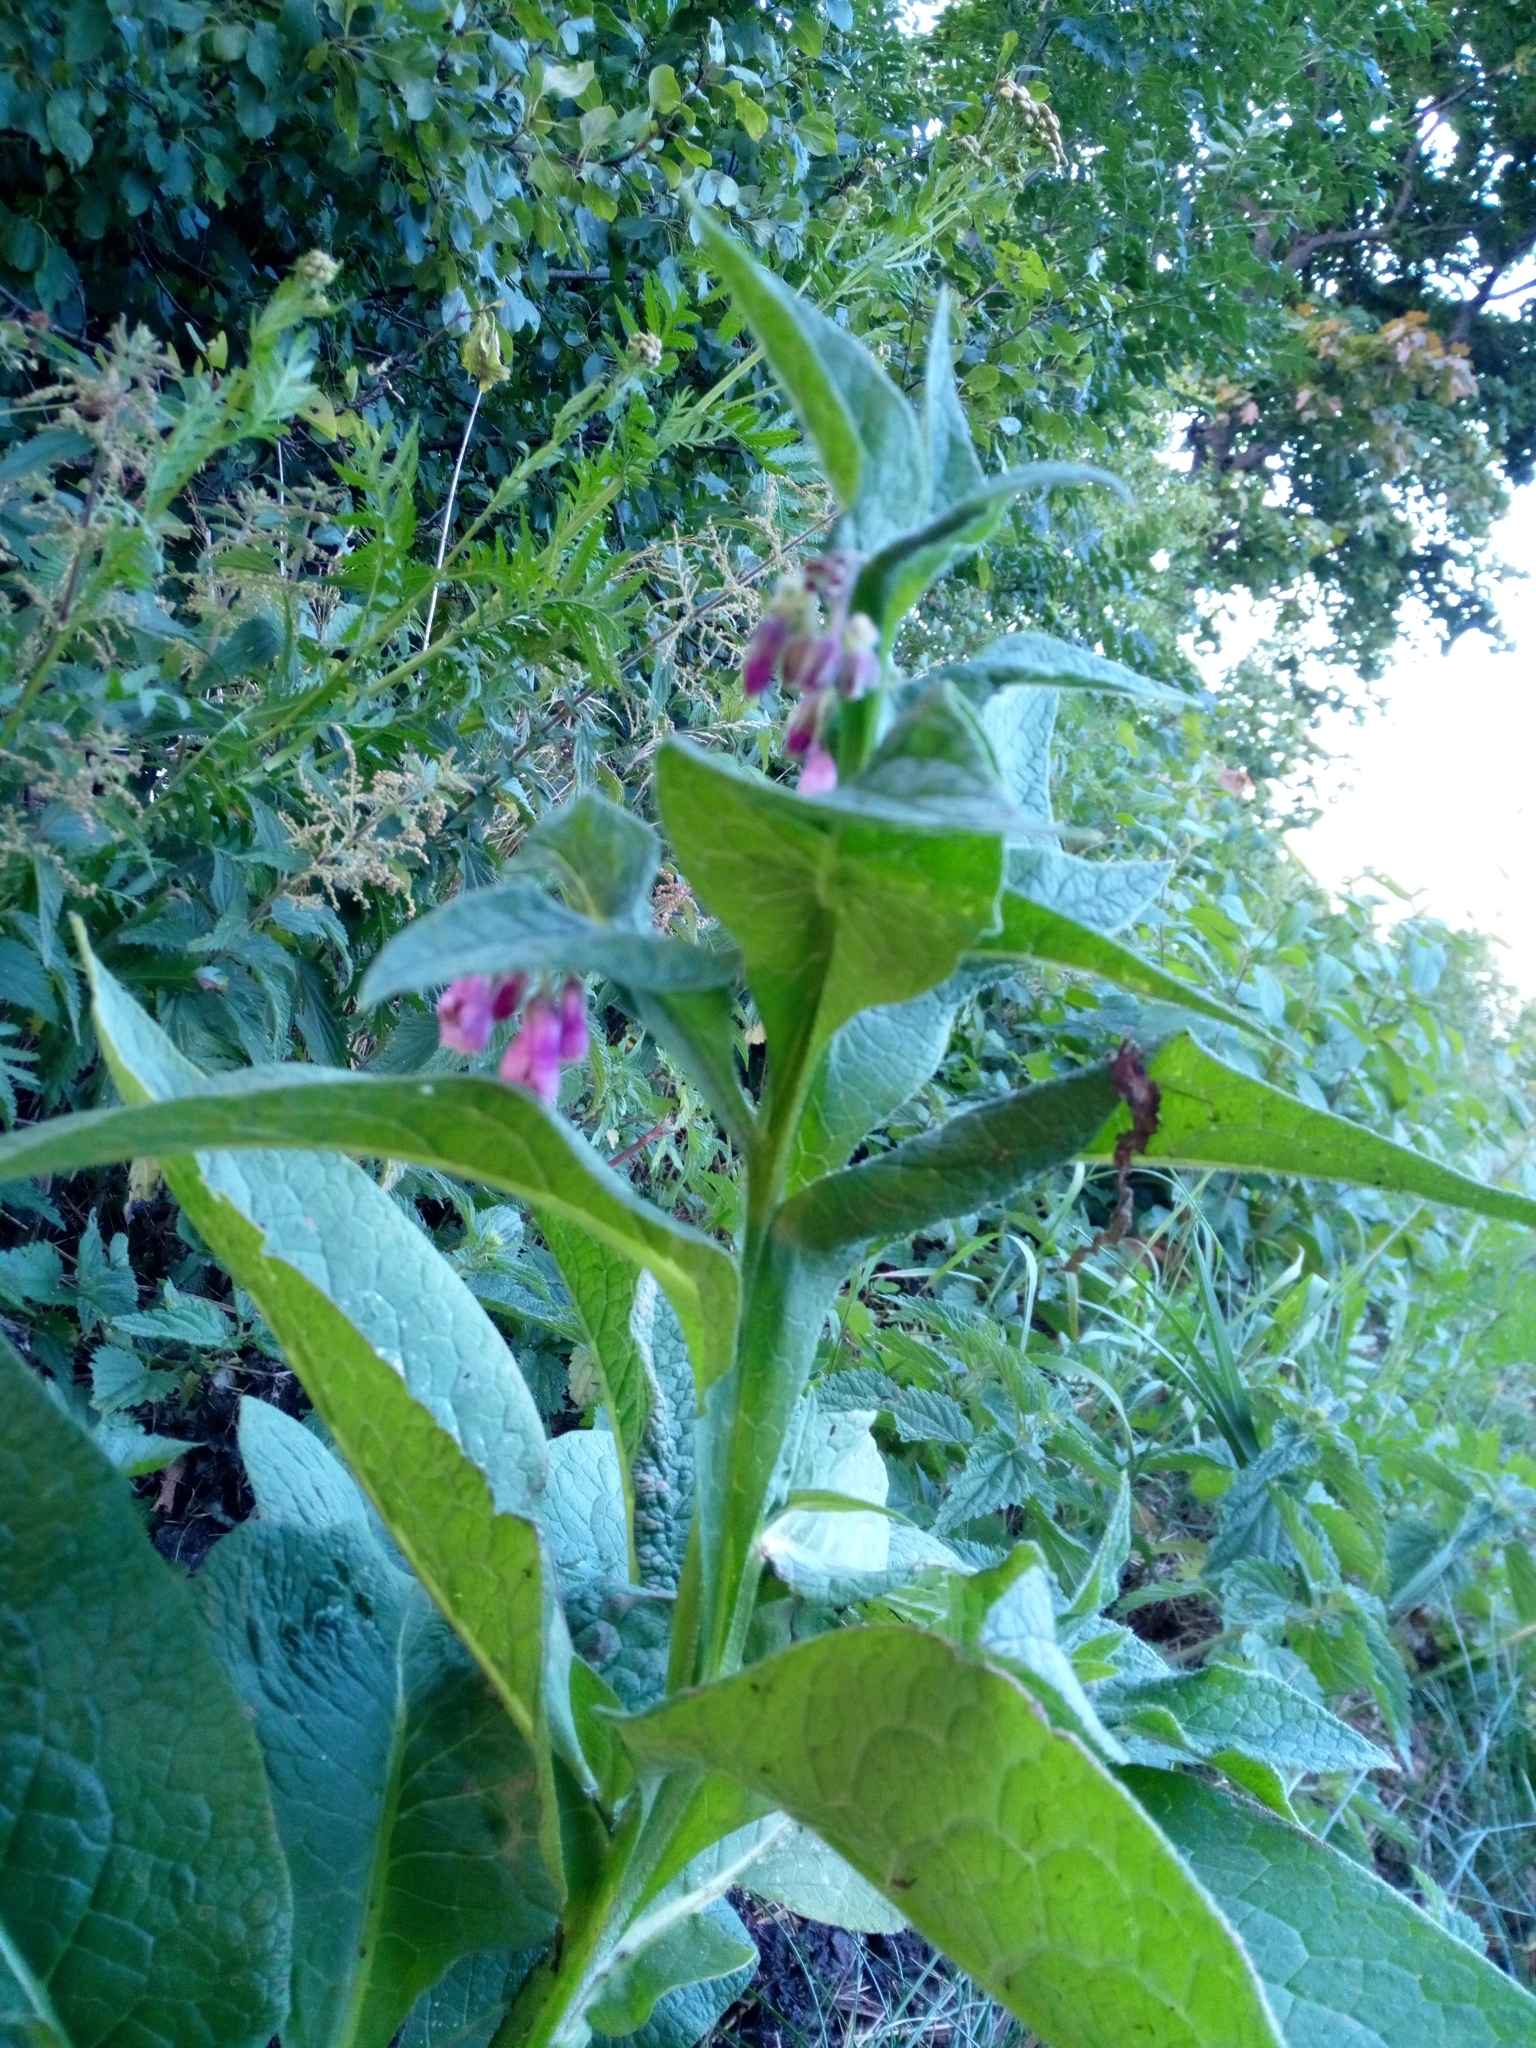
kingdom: Plantae
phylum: Tracheophyta
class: Magnoliopsida
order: Boraginales
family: Boraginaceae
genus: Symphytum
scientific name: Symphytum officinale
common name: Common comfrey
